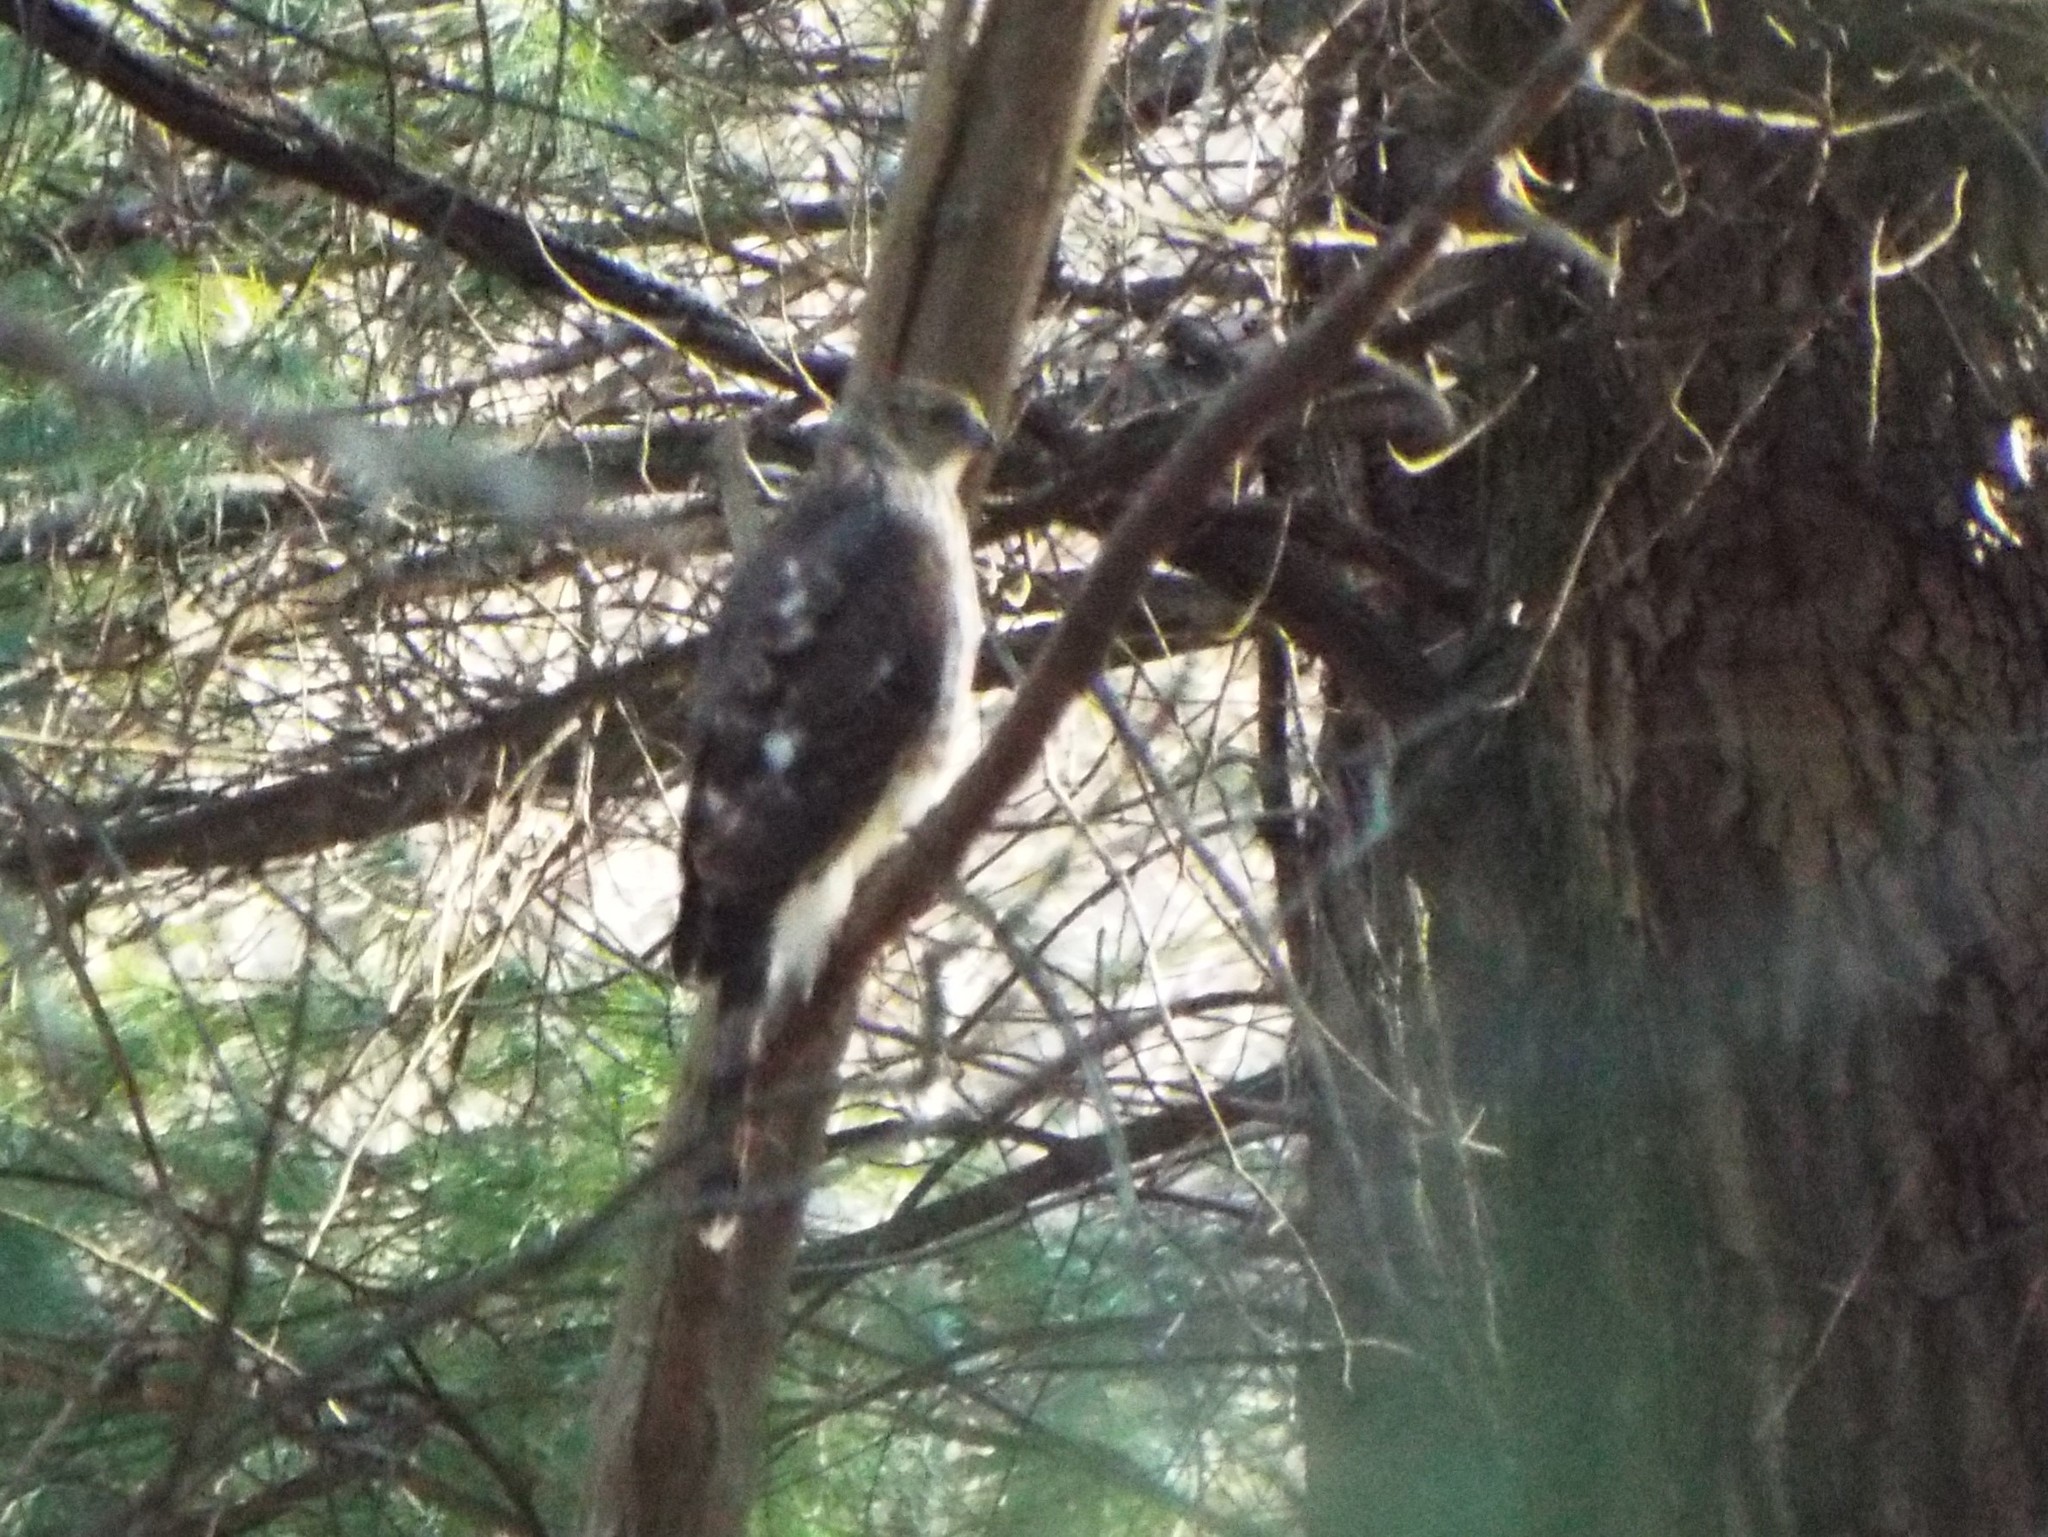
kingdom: Animalia
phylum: Chordata
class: Aves
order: Accipitriformes
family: Accipitridae
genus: Accipiter
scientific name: Accipiter cooperii
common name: Cooper's hawk
